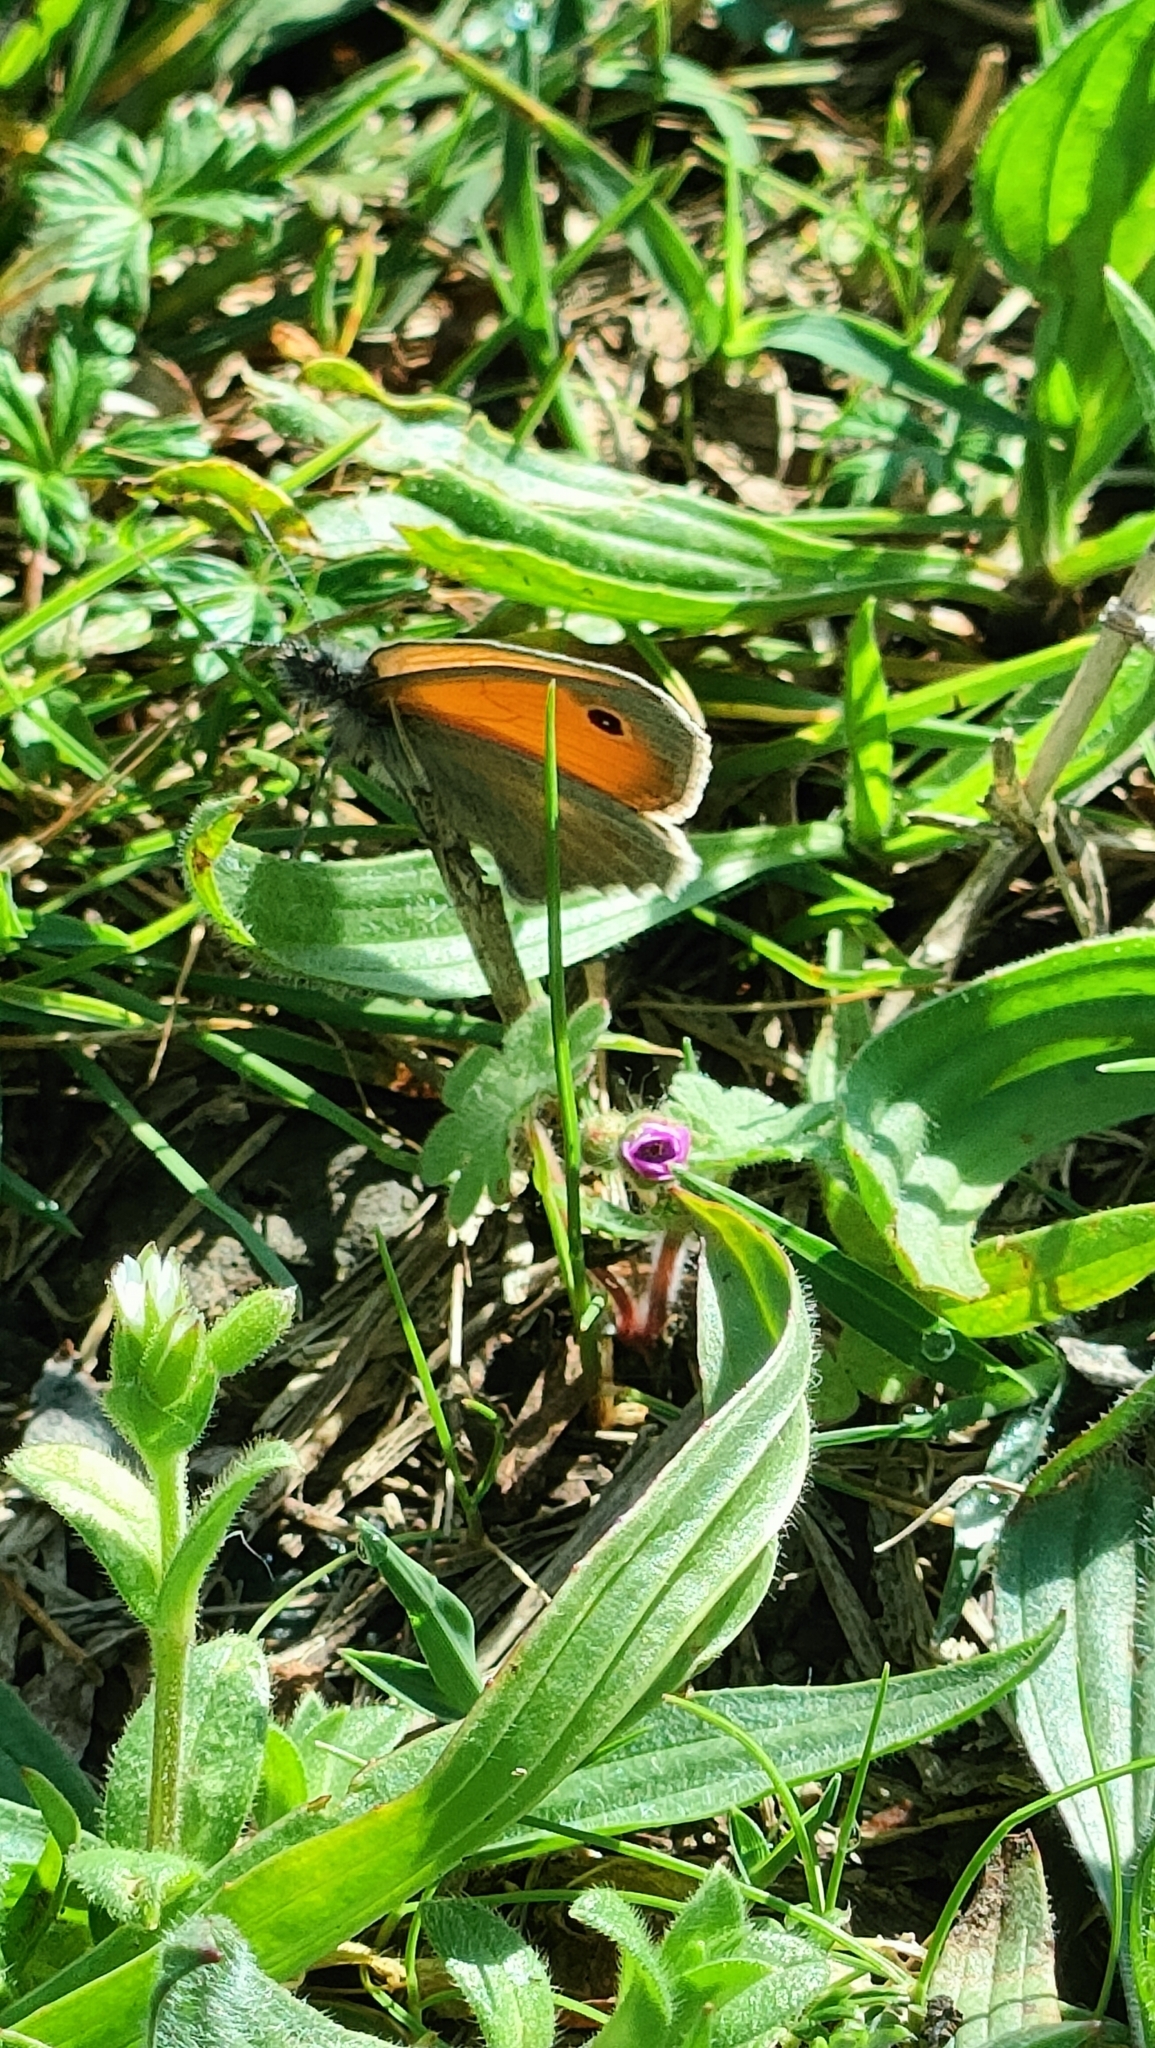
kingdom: Animalia
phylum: Arthropoda
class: Insecta
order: Lepidoptera
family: Nymphalidae
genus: Coenonympha
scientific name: Coenonympha pamphilus
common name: Small heath
